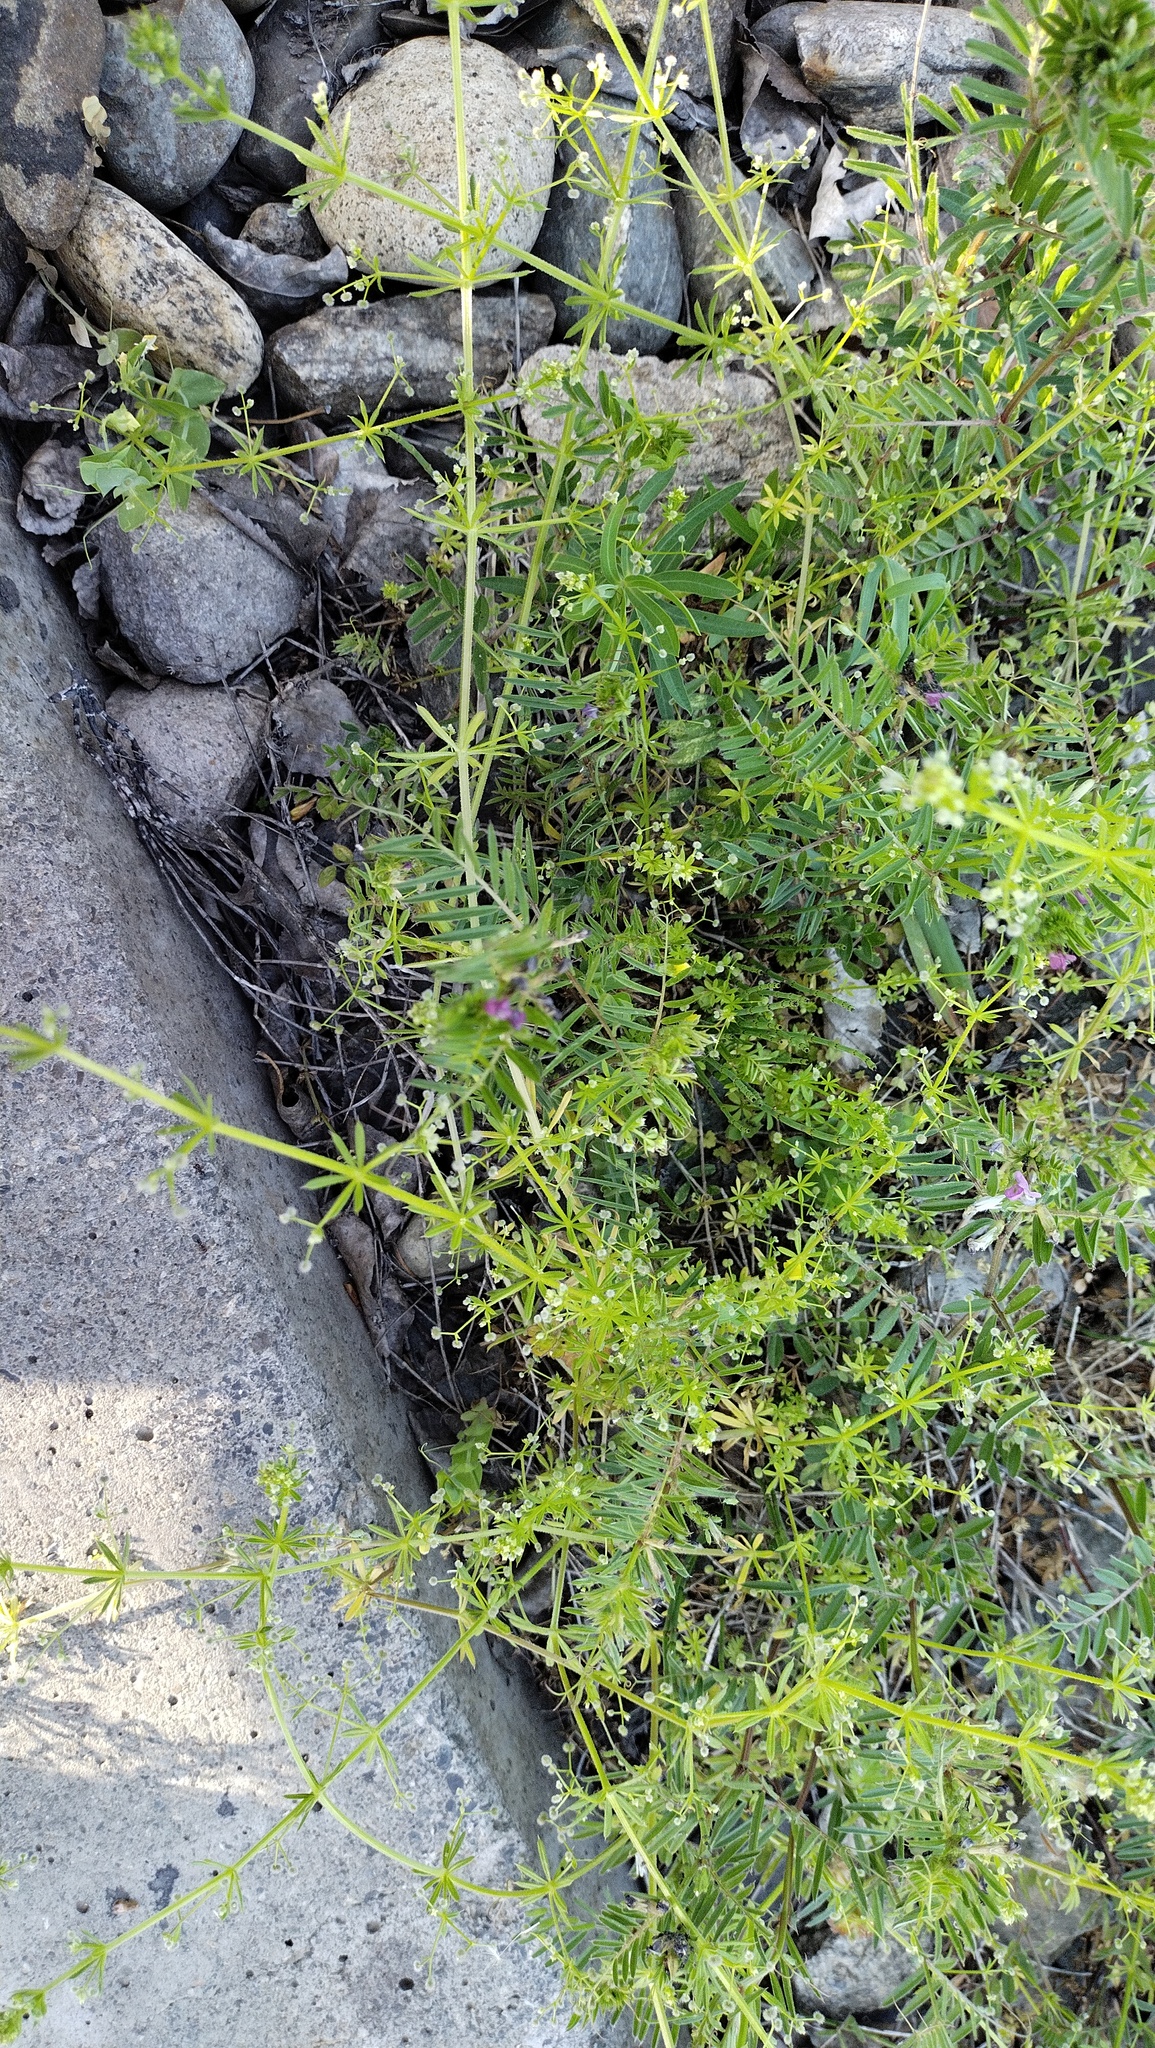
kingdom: Plantae
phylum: Tracheophyta
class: Magnoliopsida
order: Gentianales
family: Rubiaceae
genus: Galium
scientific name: Galium aparine
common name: Cleavers
